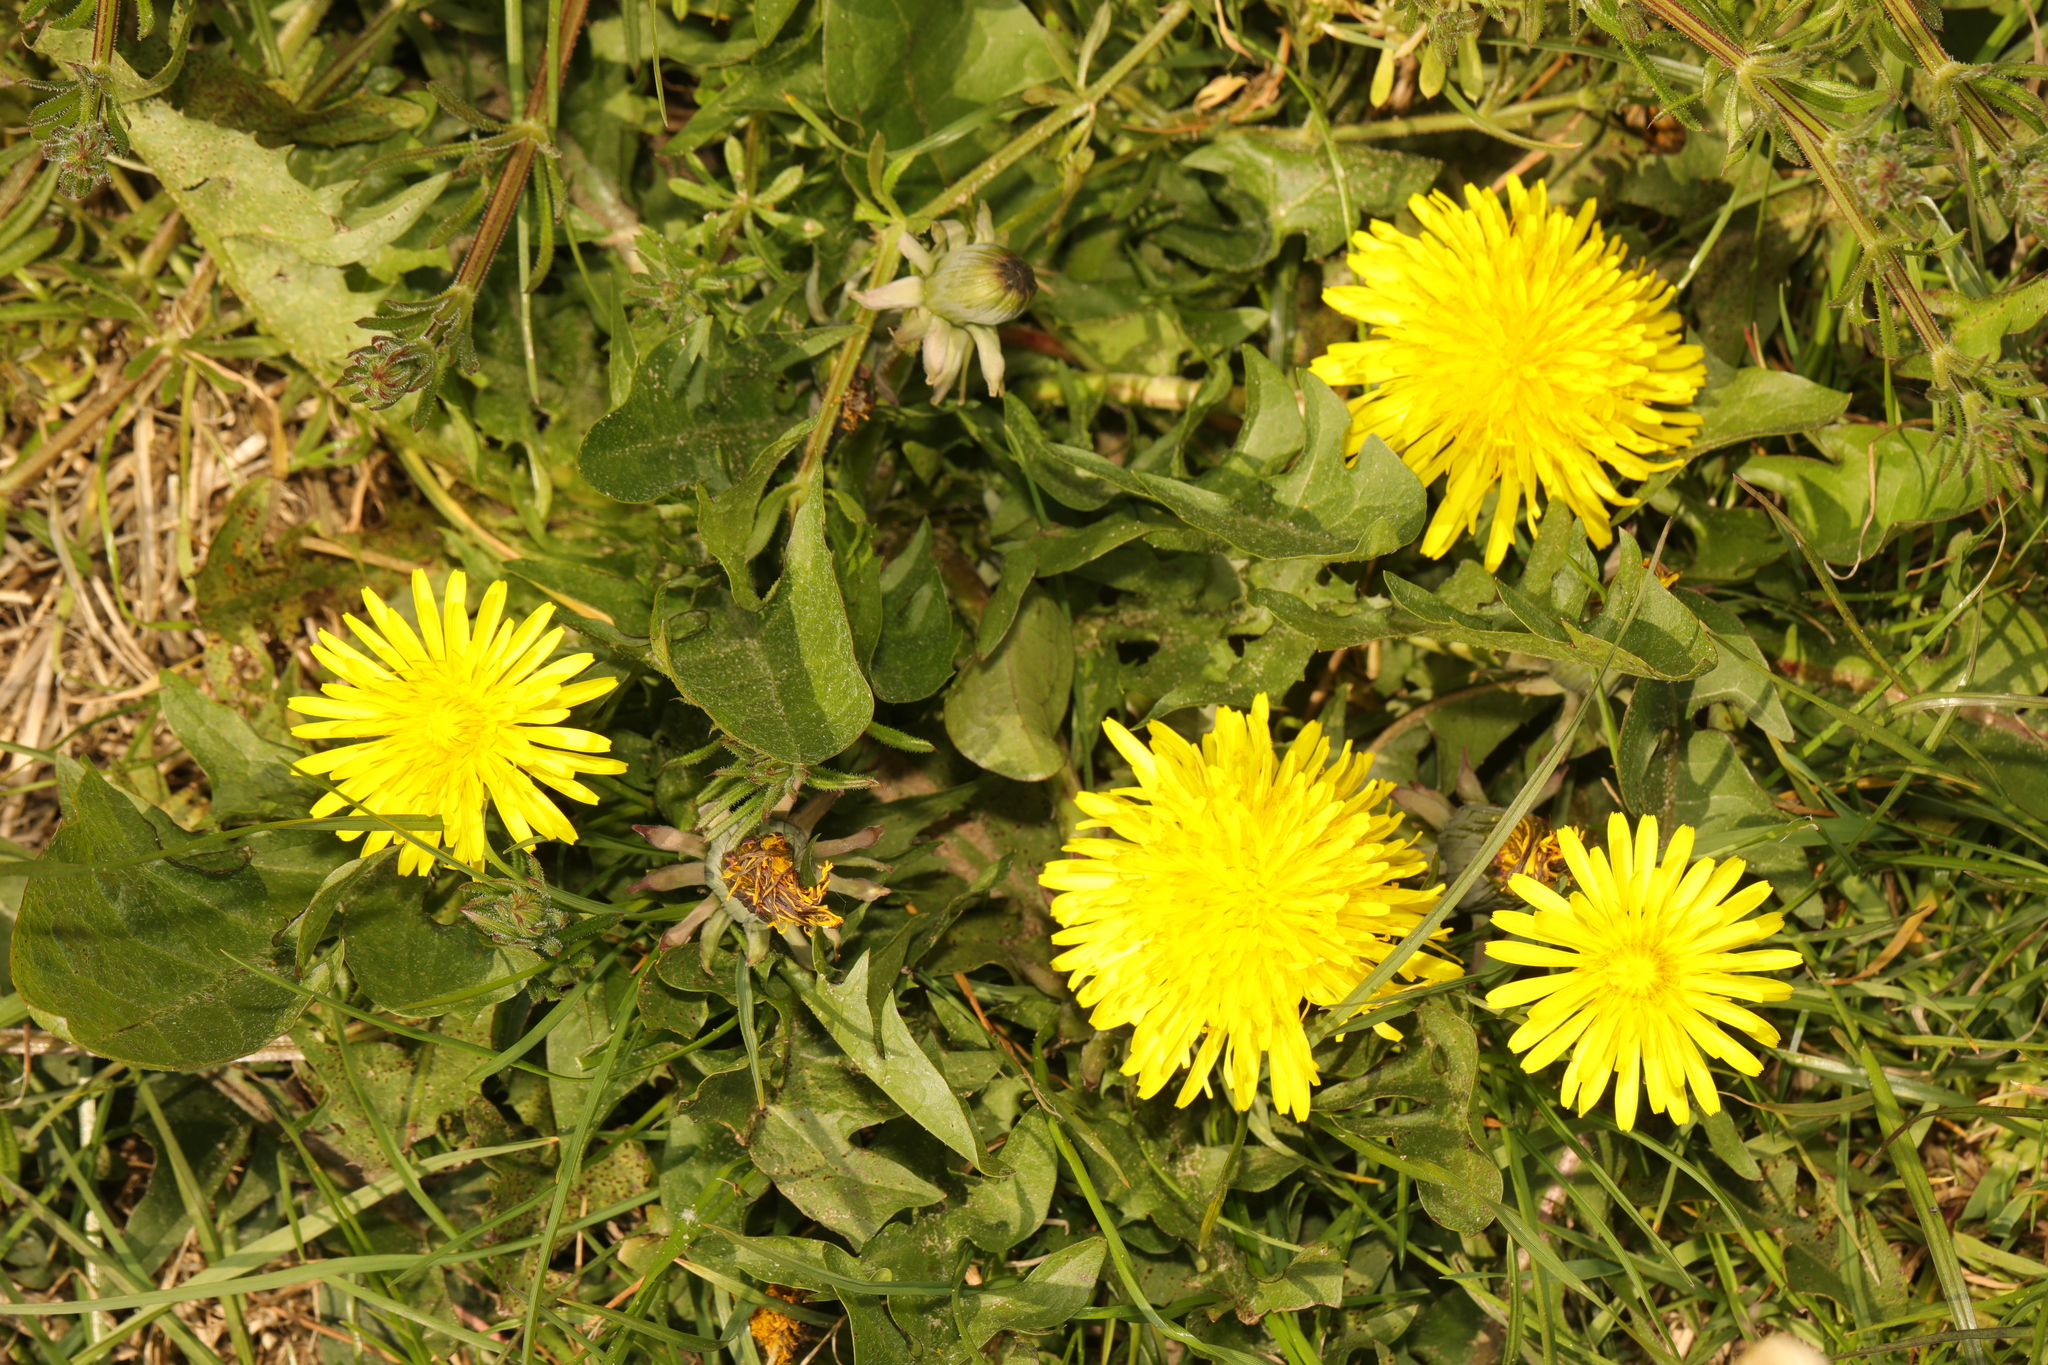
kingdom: Plantae
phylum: Tracheophyta
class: Magnoliopsida
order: Asterales
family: Asteraceae
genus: Taraxacum
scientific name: Taraxacum officinale
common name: Common dandelion
